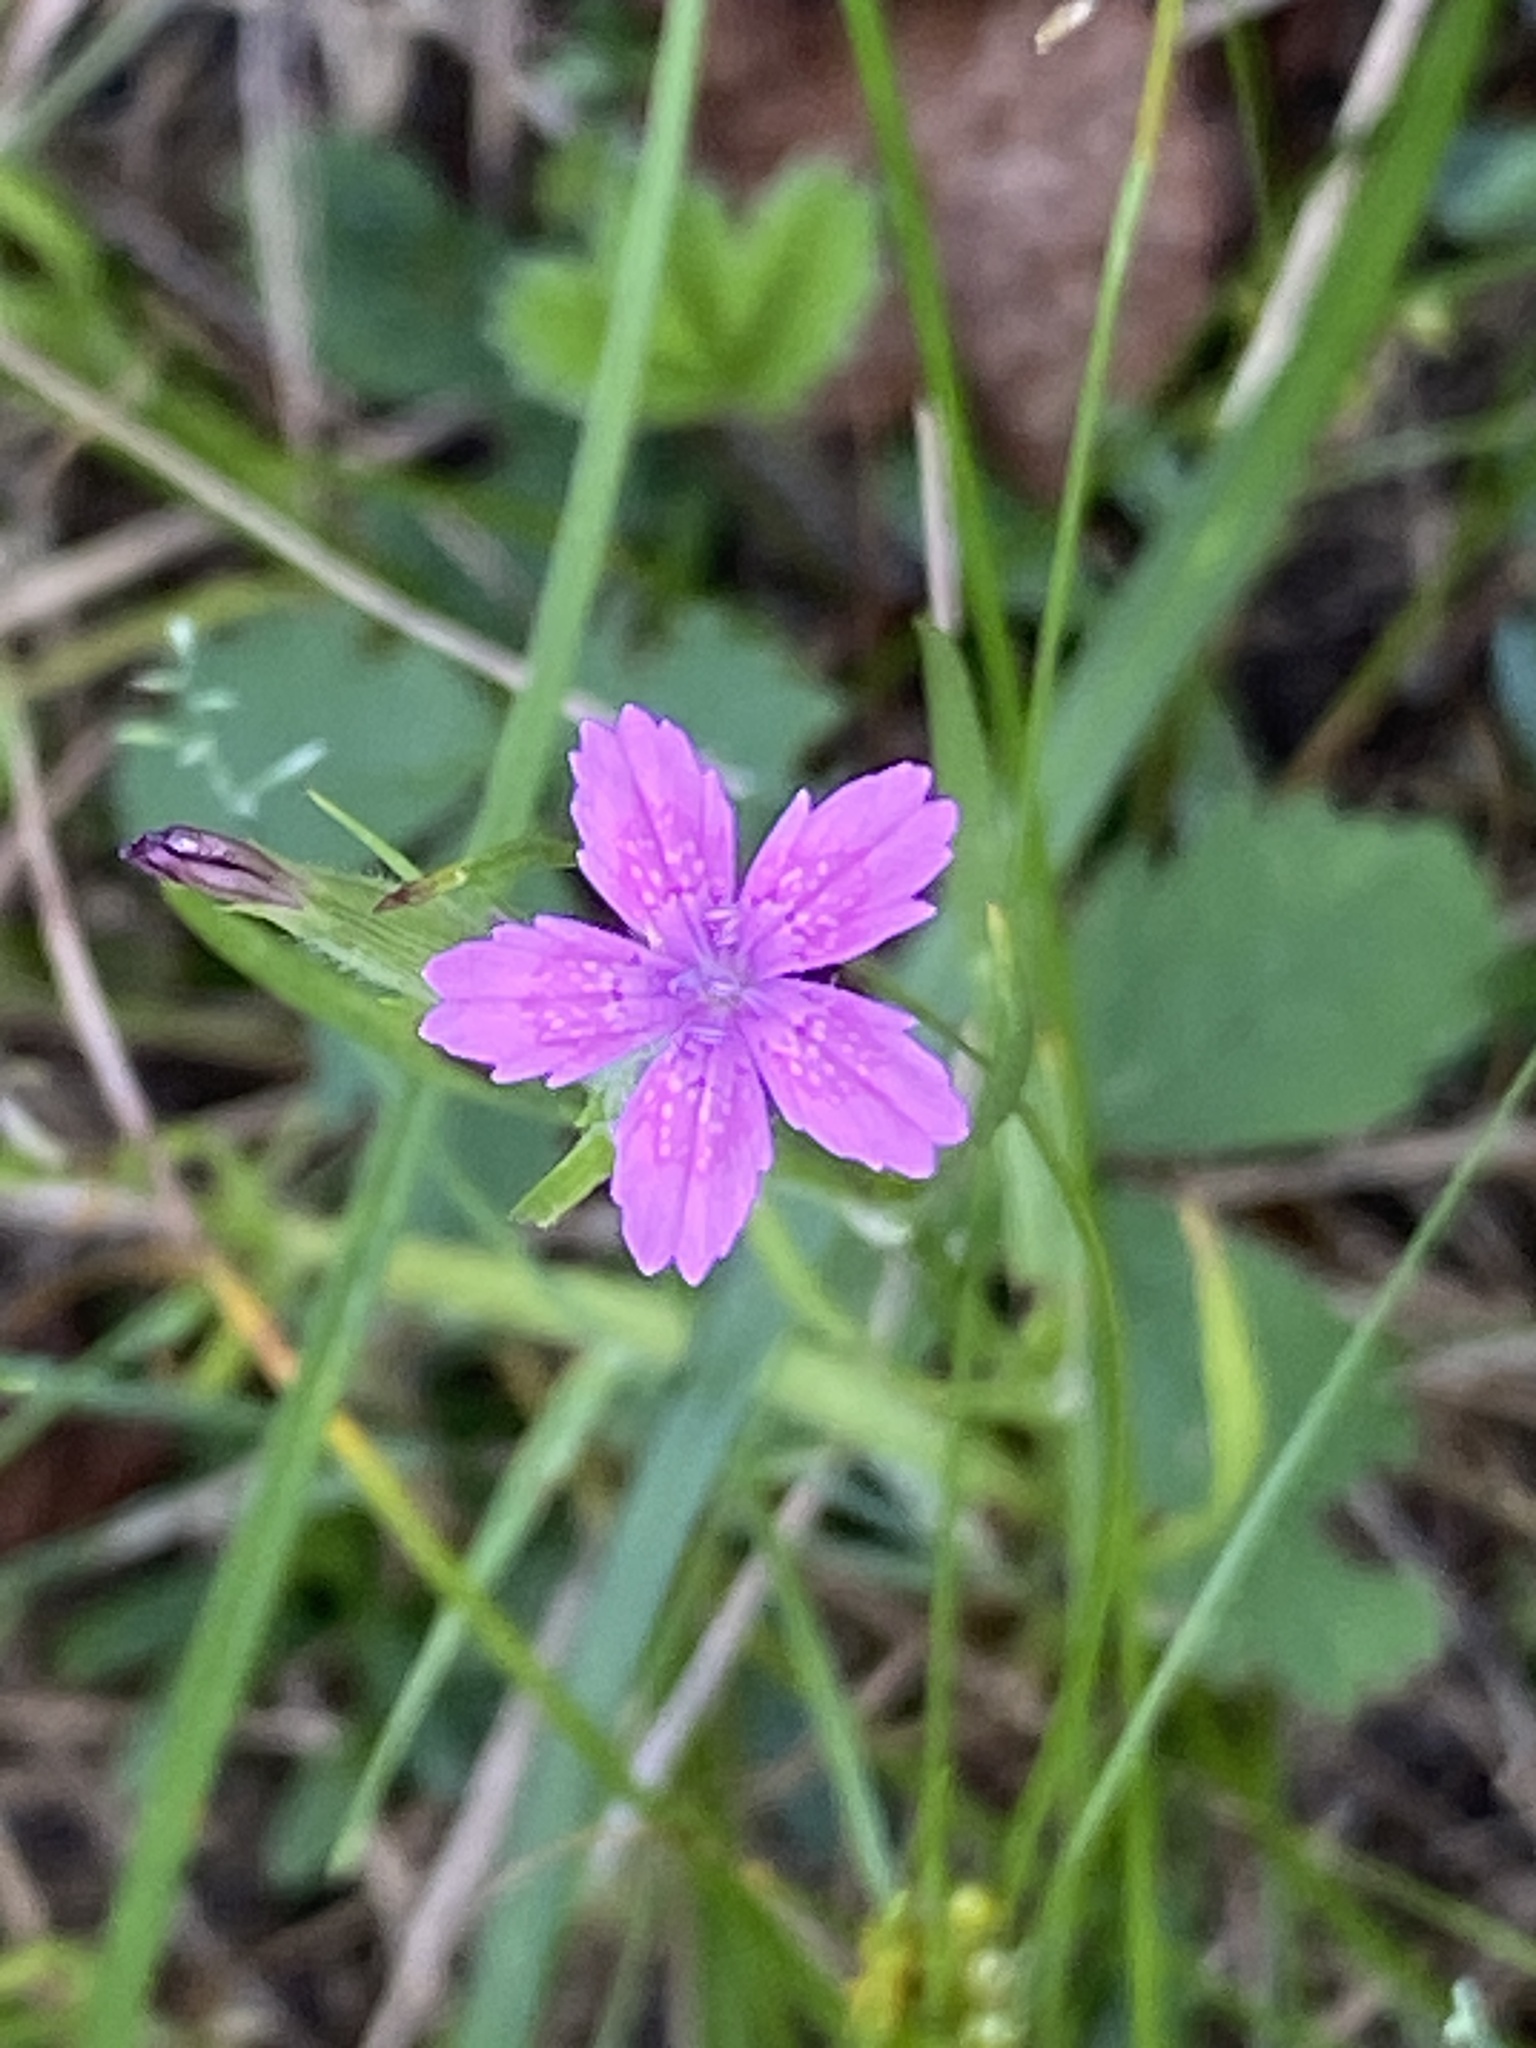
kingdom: Plantae
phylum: Tracheophyta
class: Magnoliopsida
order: Caryophyllales
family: Caryophyllaceae
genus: Dianthus
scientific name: Dianthus armeria
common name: Deptford pink
